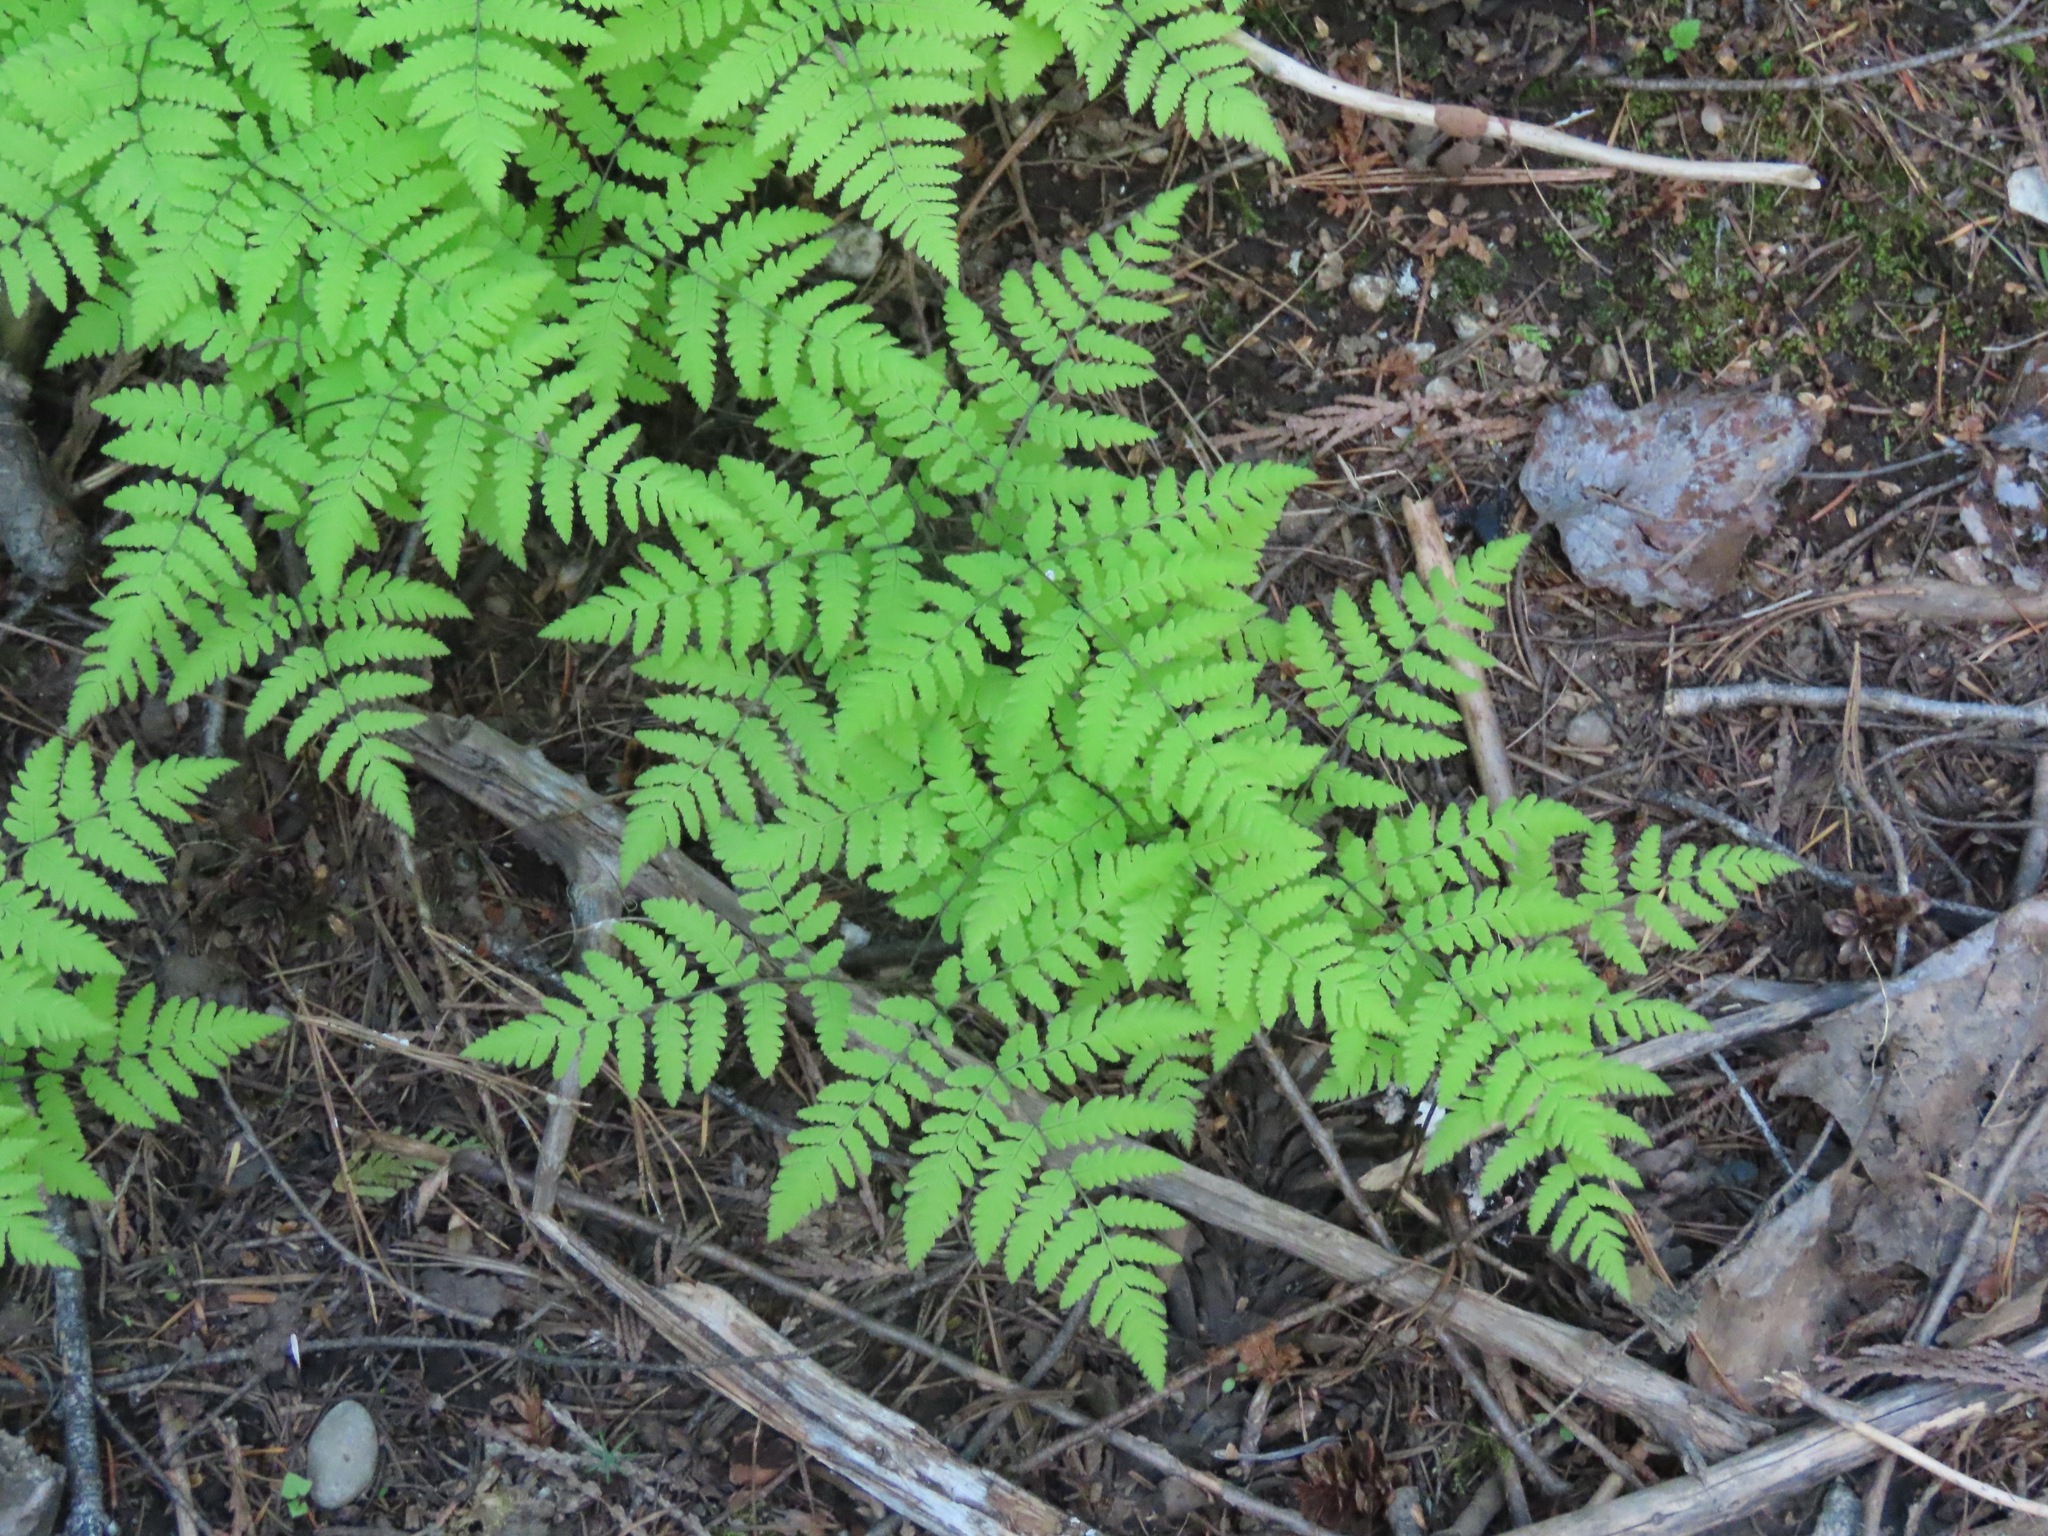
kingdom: Plantae
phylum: Tracheophyta
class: Polypodiopsida
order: Polypodiales
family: Cystopteridaceae
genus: Gymnocarpium
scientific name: Gymnocarpium disjunctum
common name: Western oak fern
